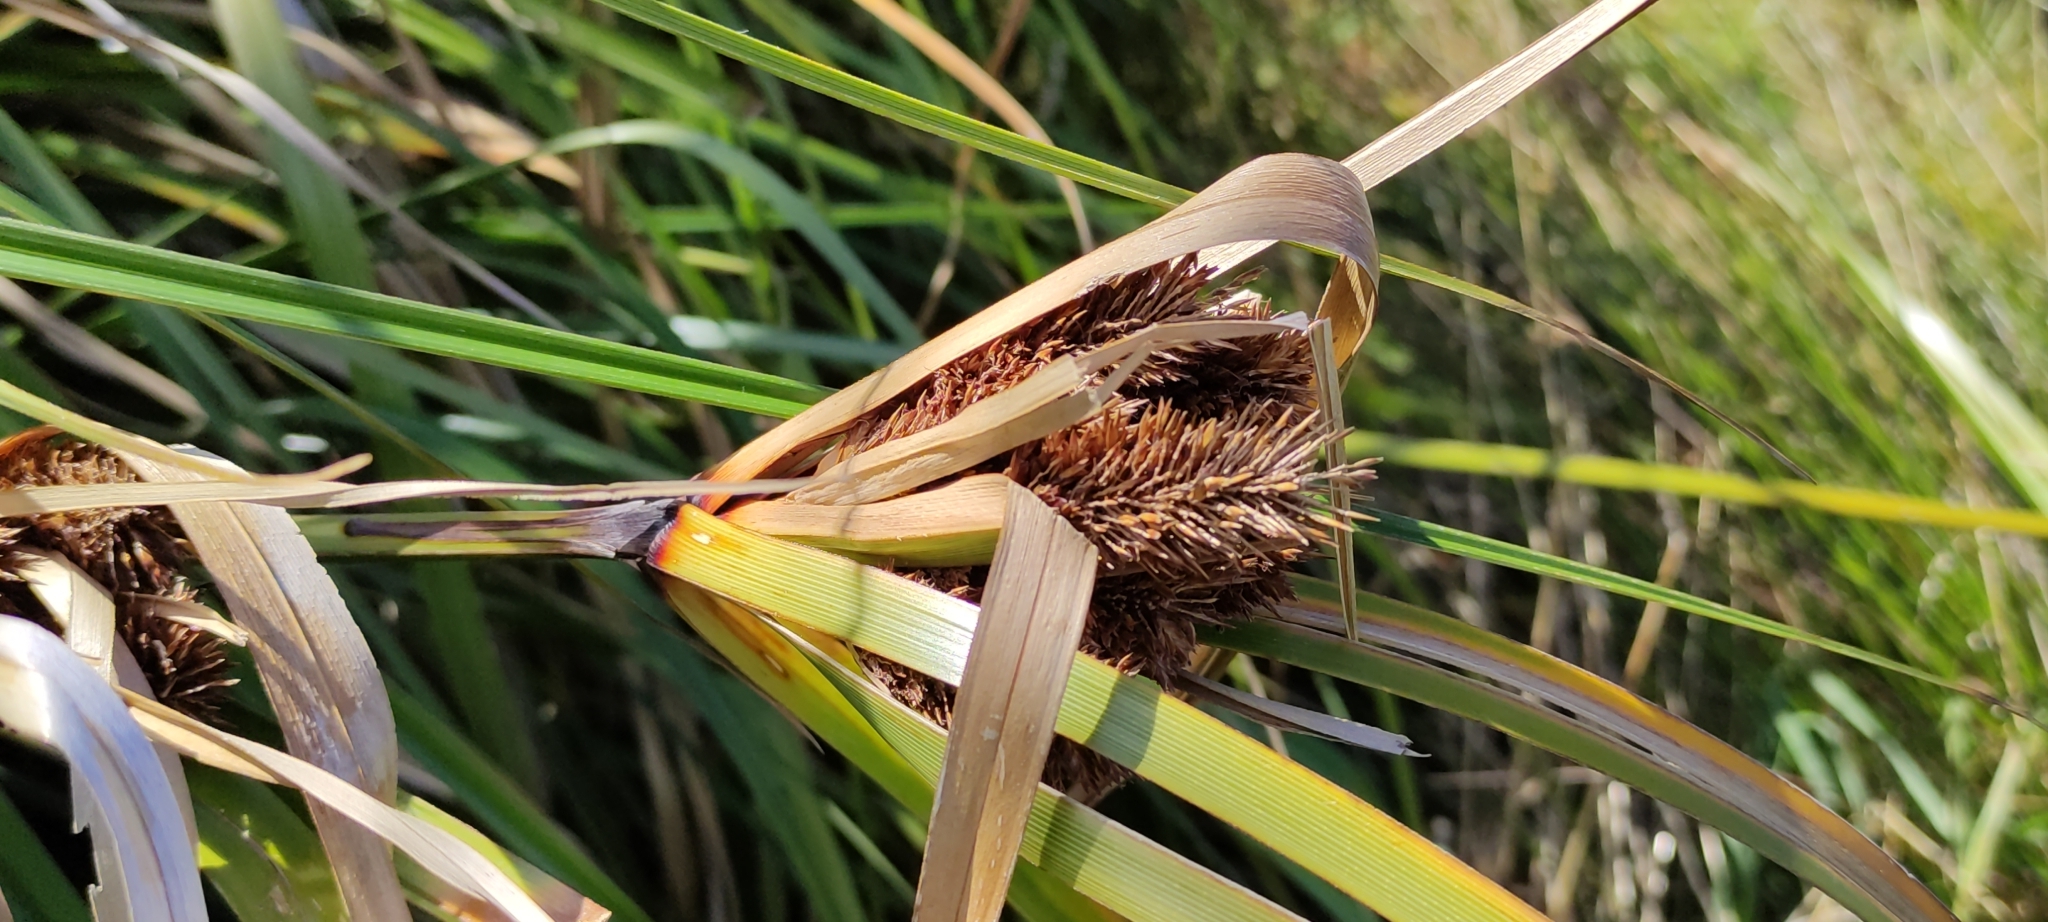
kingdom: Plantae
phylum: Tracheophyta
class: Liliopsida
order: Poales
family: Cyperaceae
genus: Cyperus
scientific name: Cyperus ustulatus
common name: Giant umbrella-sedge
